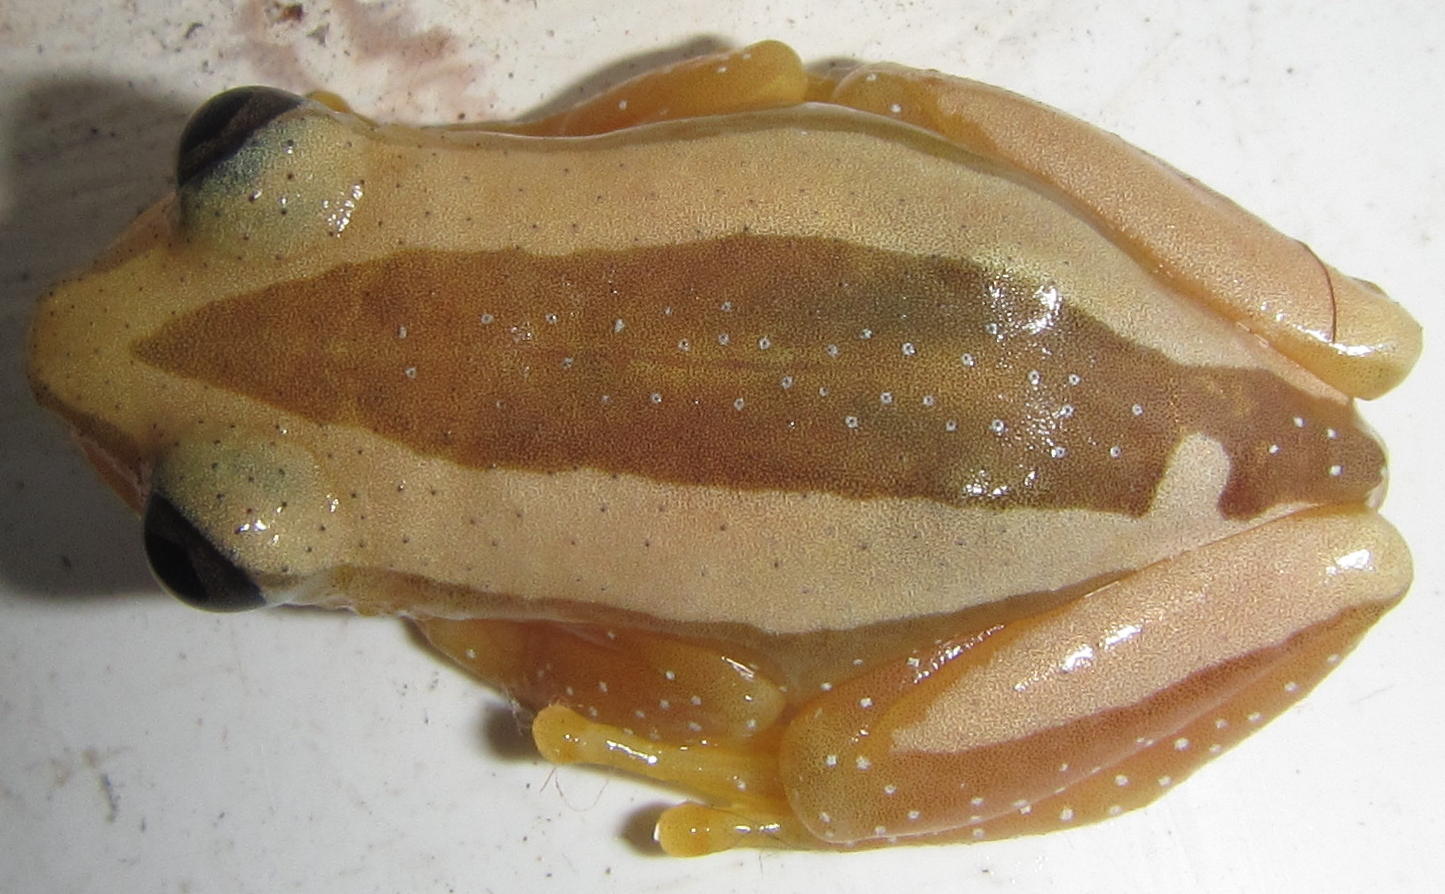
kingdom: Animalia
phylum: Chordata
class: Amphibia
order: Anura
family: Hyperoliidae
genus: Afrixalus
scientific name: Afrixalus fornasini
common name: Fornasini's spiny reed frog
